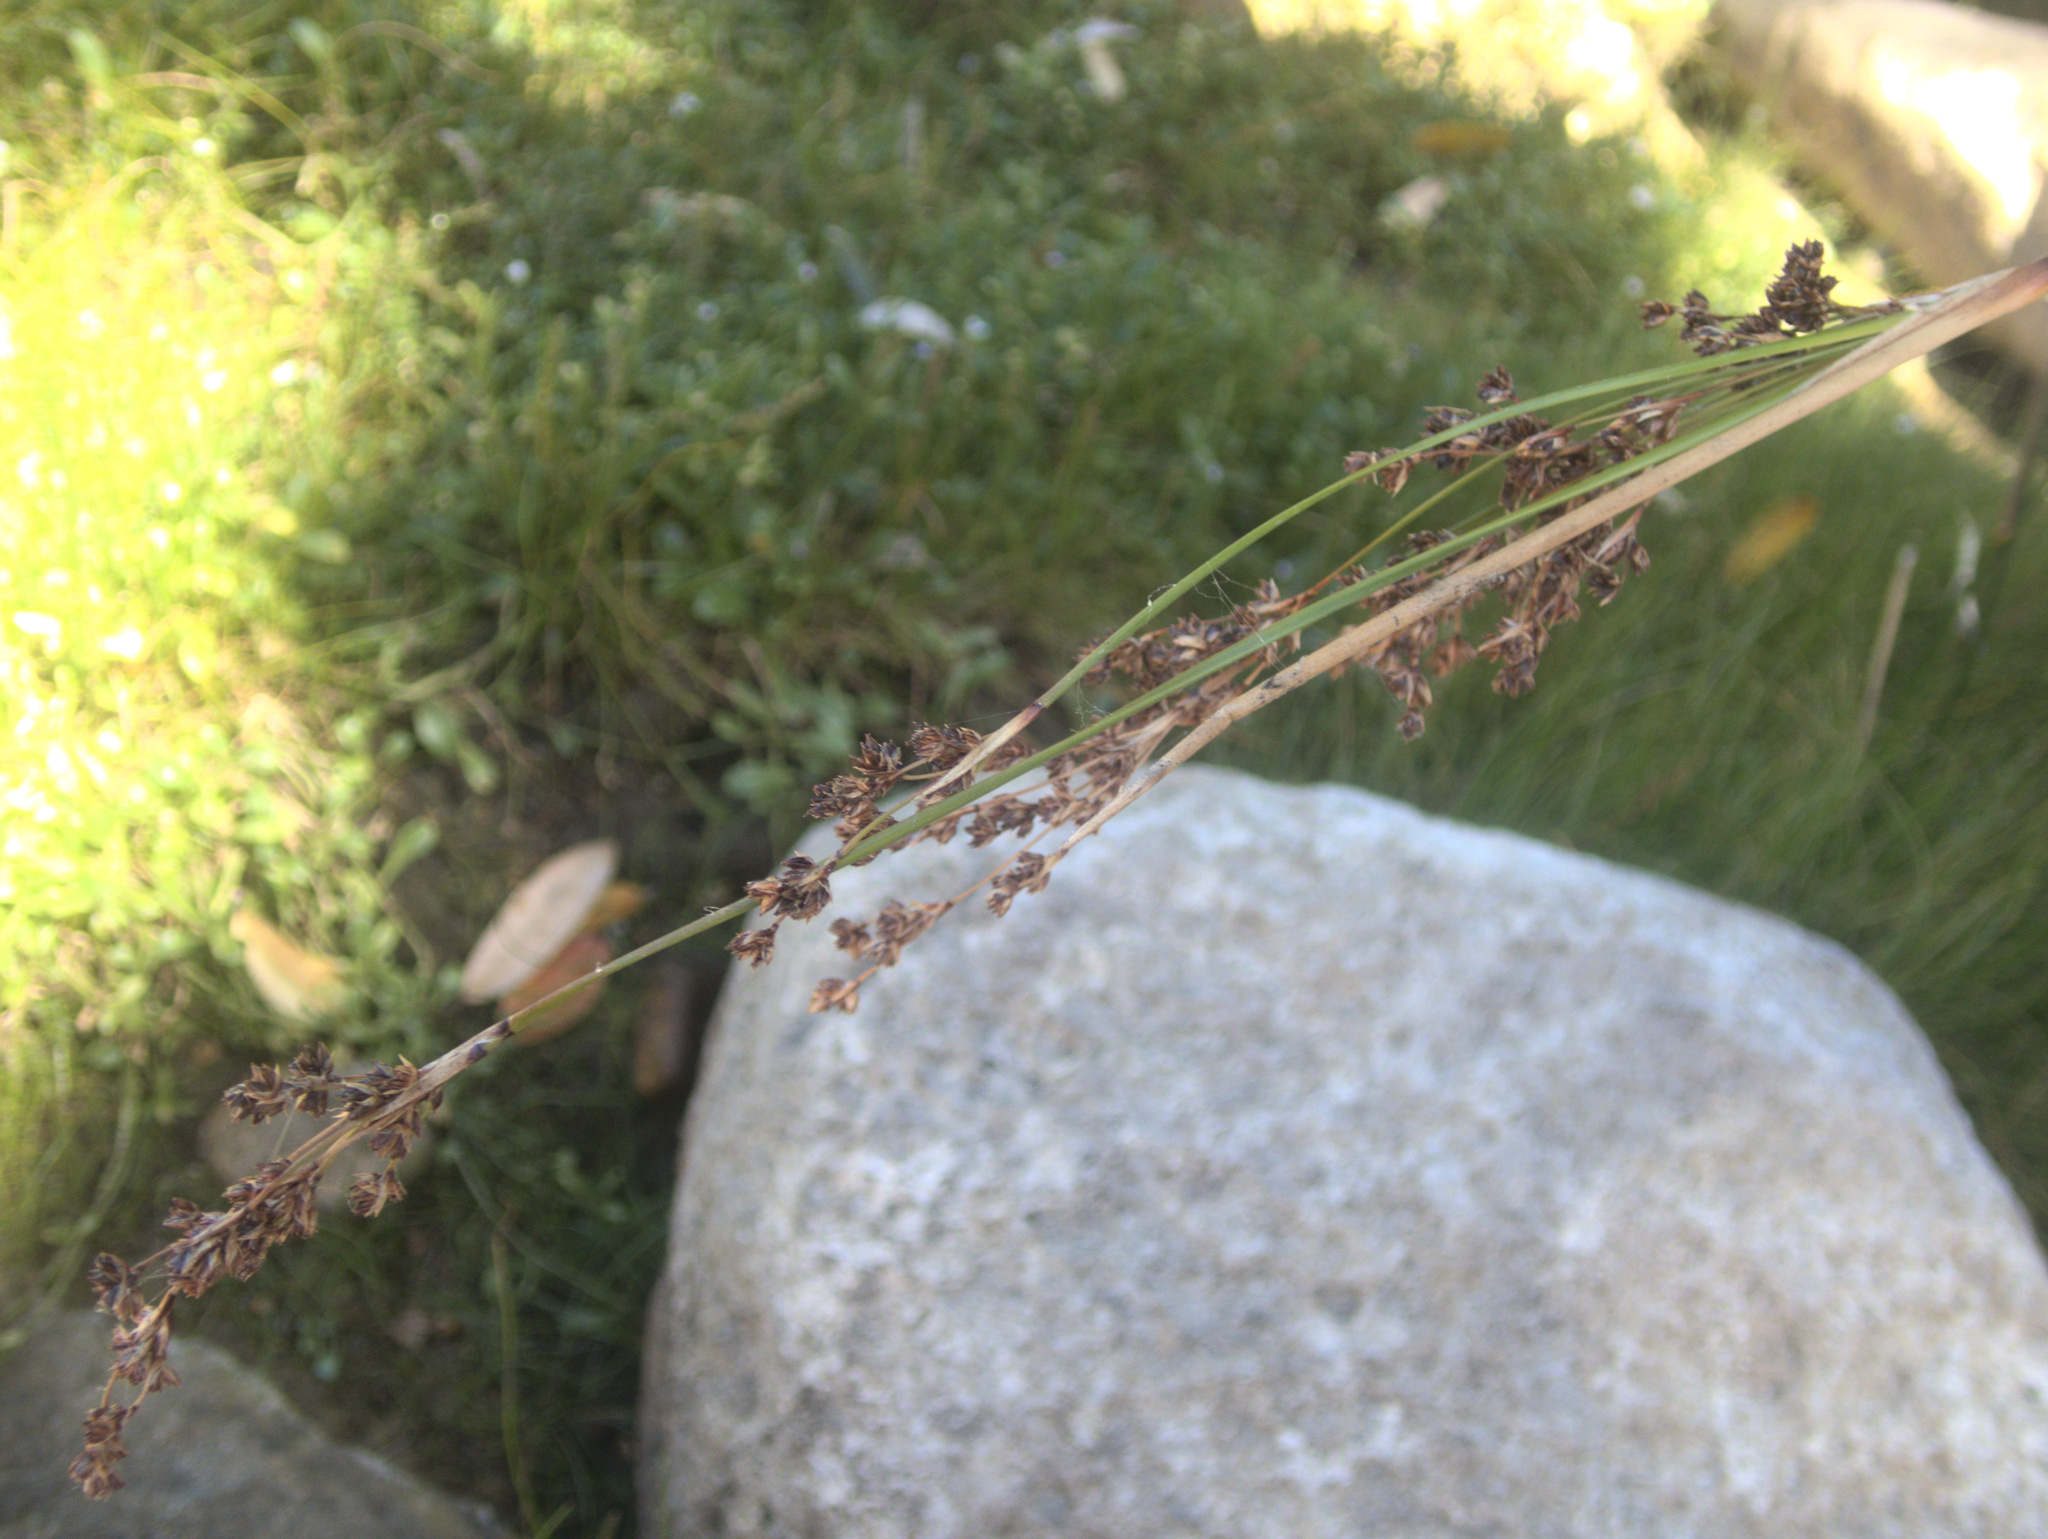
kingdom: Plantae
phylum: Tracheophyta
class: Liliopsida
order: Poales
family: Juncaceae
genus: Juncus
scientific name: Juncus kraussii
